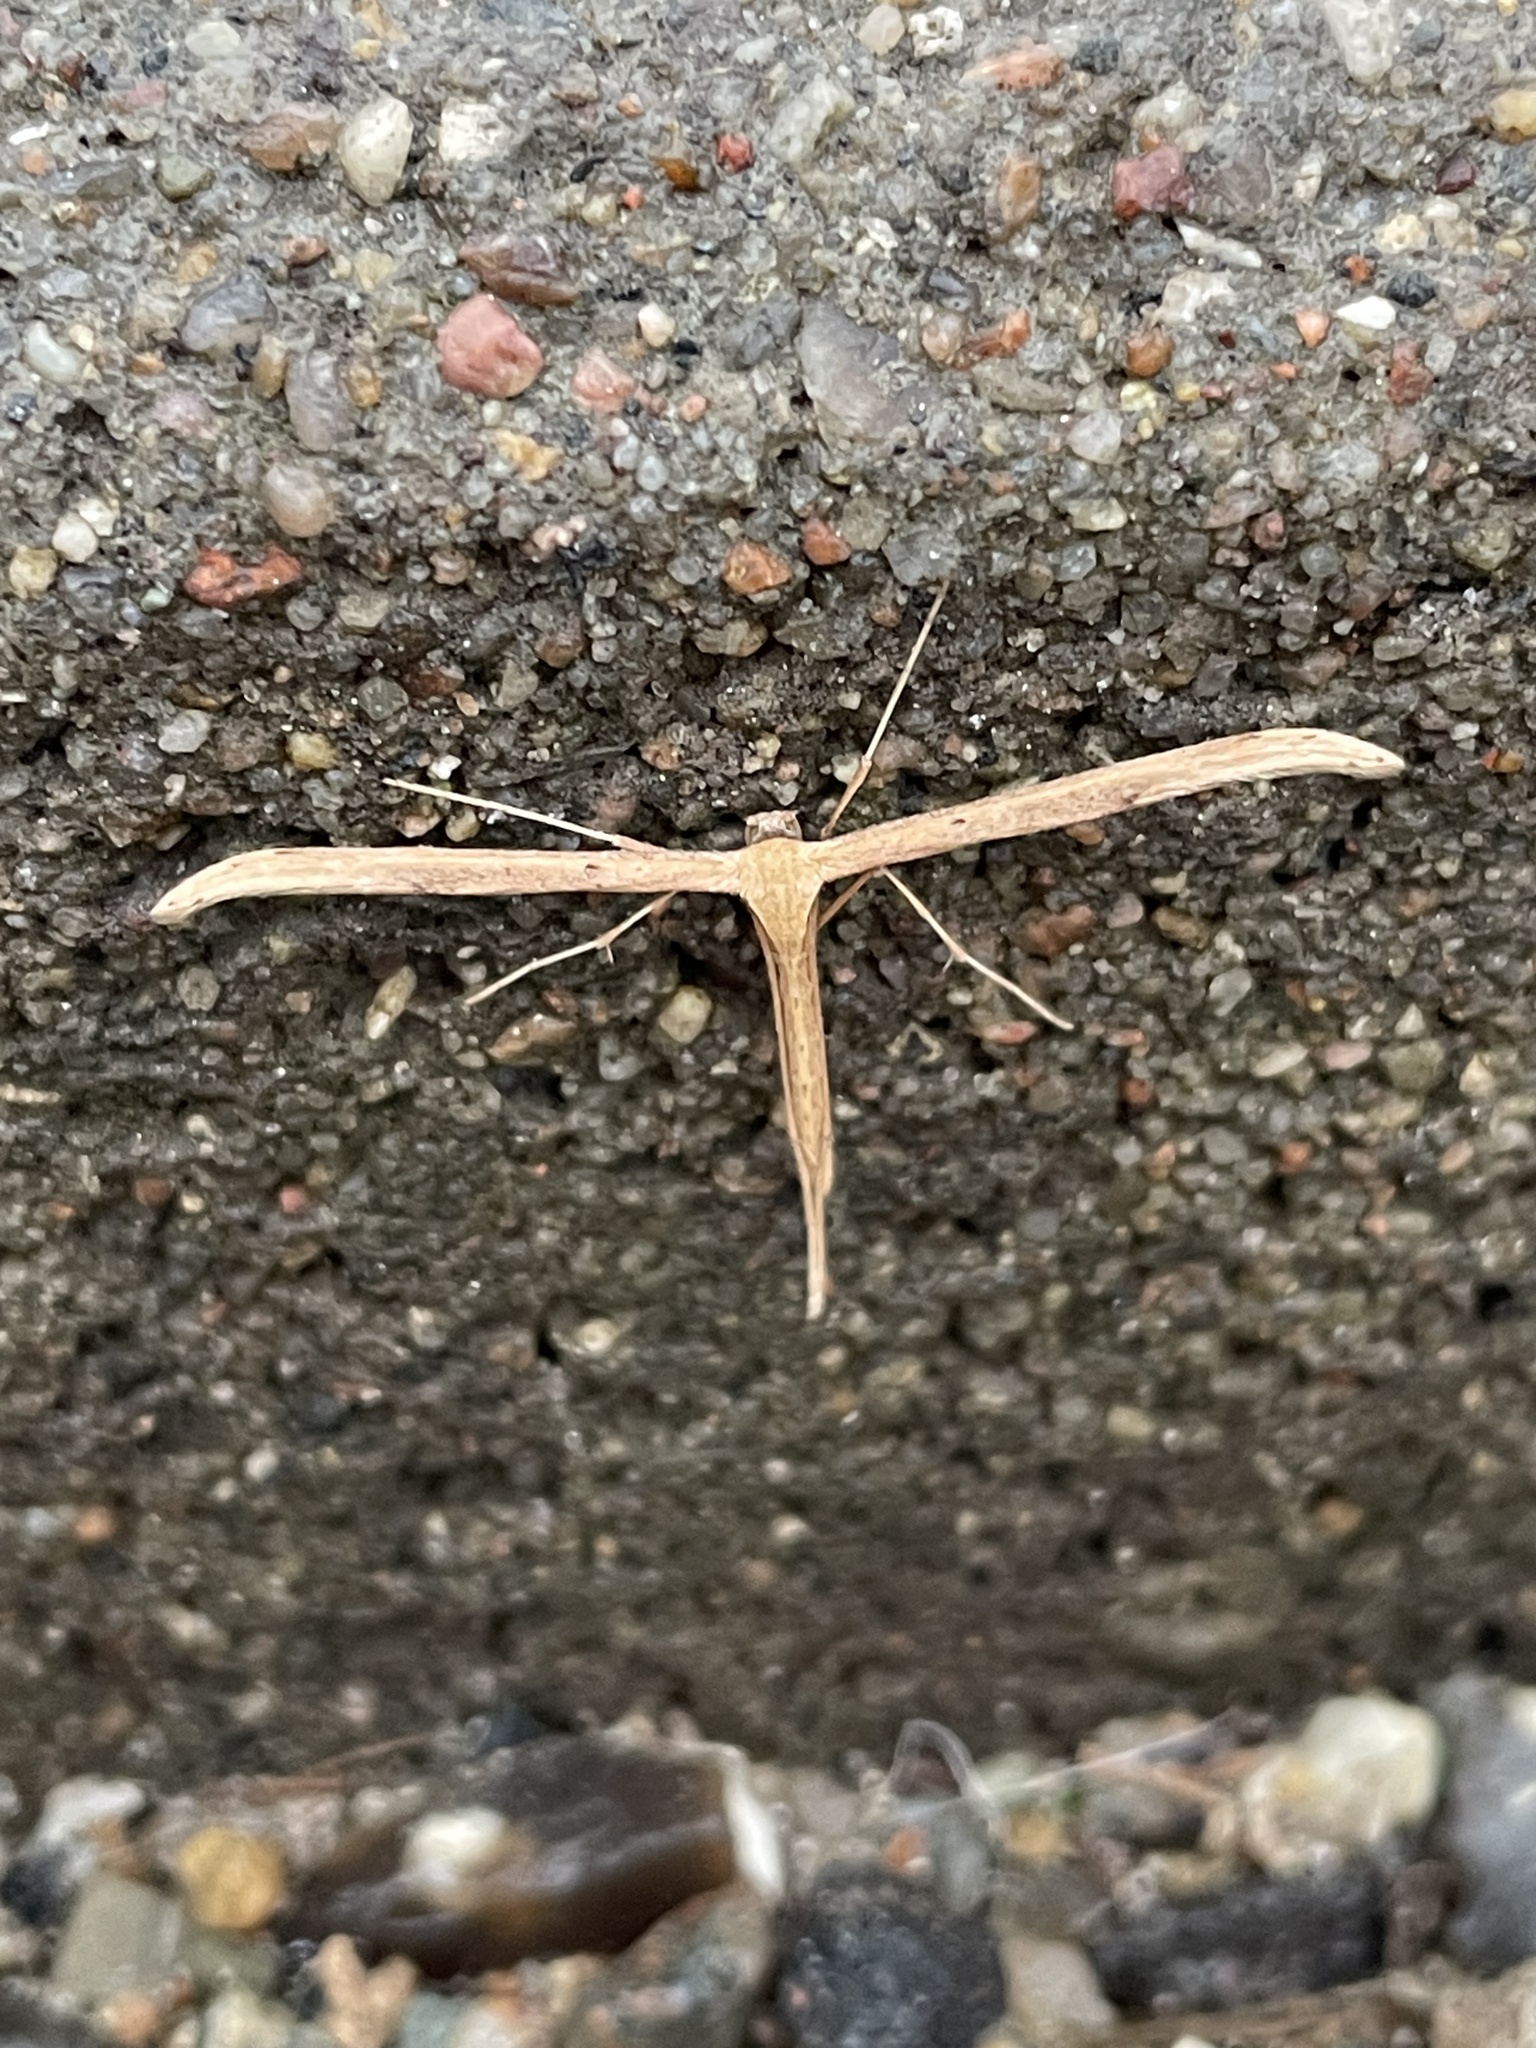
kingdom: Animalia
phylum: Arthropoda
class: Insecta
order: Lepidoptera
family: Pterophoridae
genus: Emmelina
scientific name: Emmelina monodactyla
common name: Common plume
